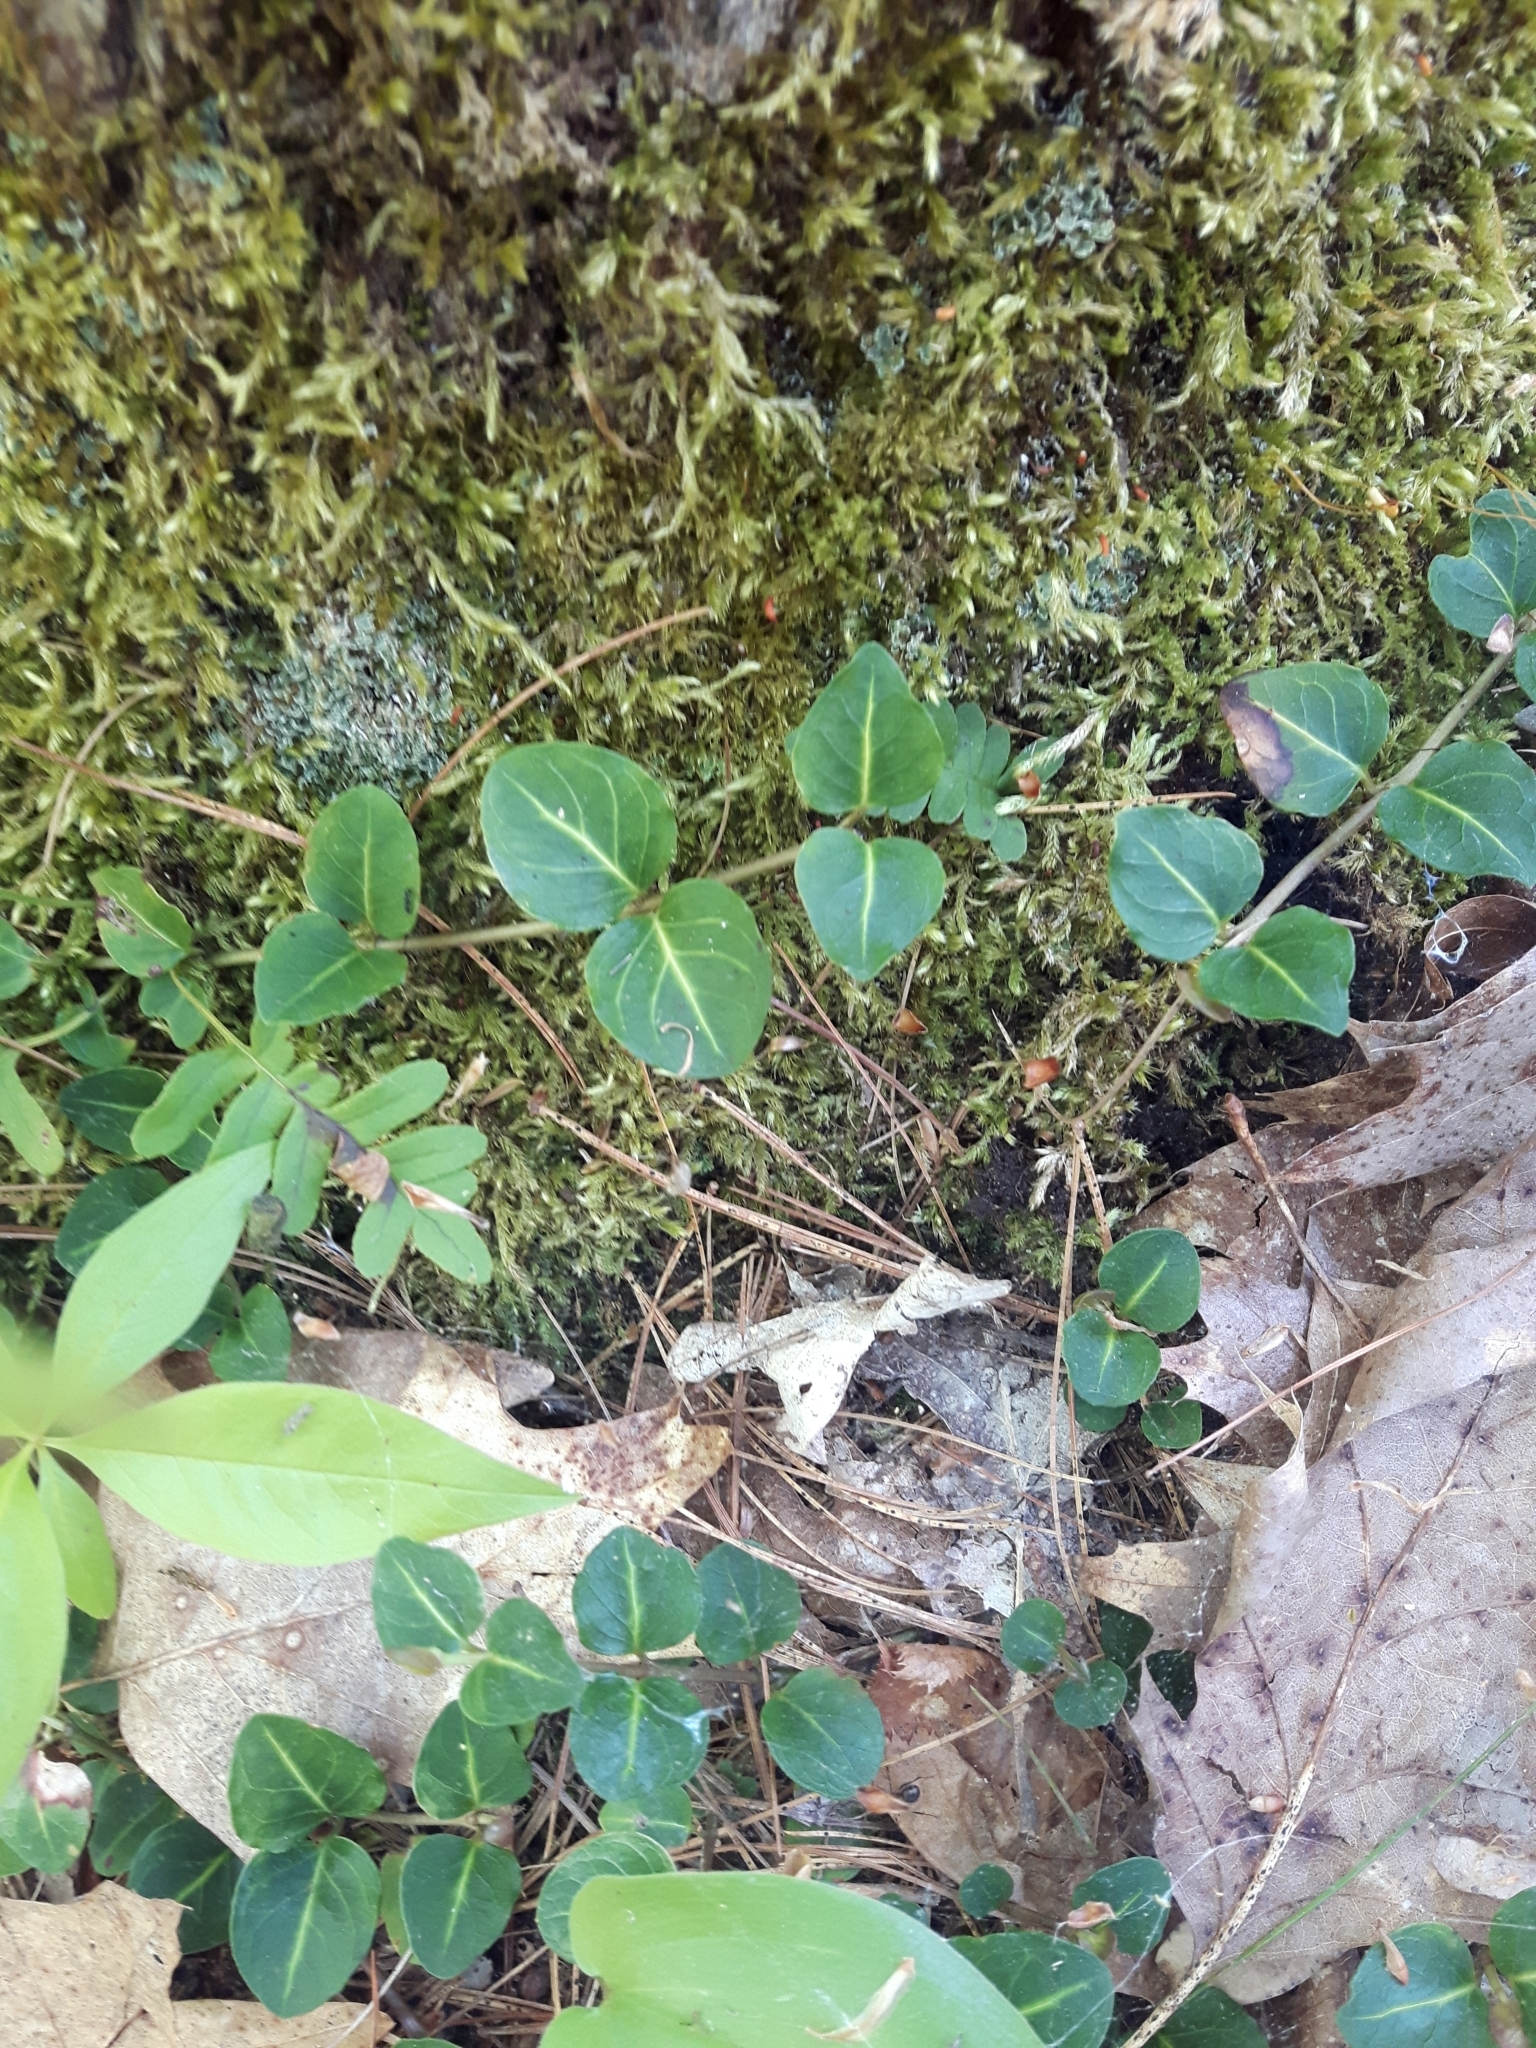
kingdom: Plantae
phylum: Tracheophyta
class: Magnoliopsida
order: Gentianales
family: Rubiaceae
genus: Mitchella
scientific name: Mitchella repens
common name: Partridge-berry
